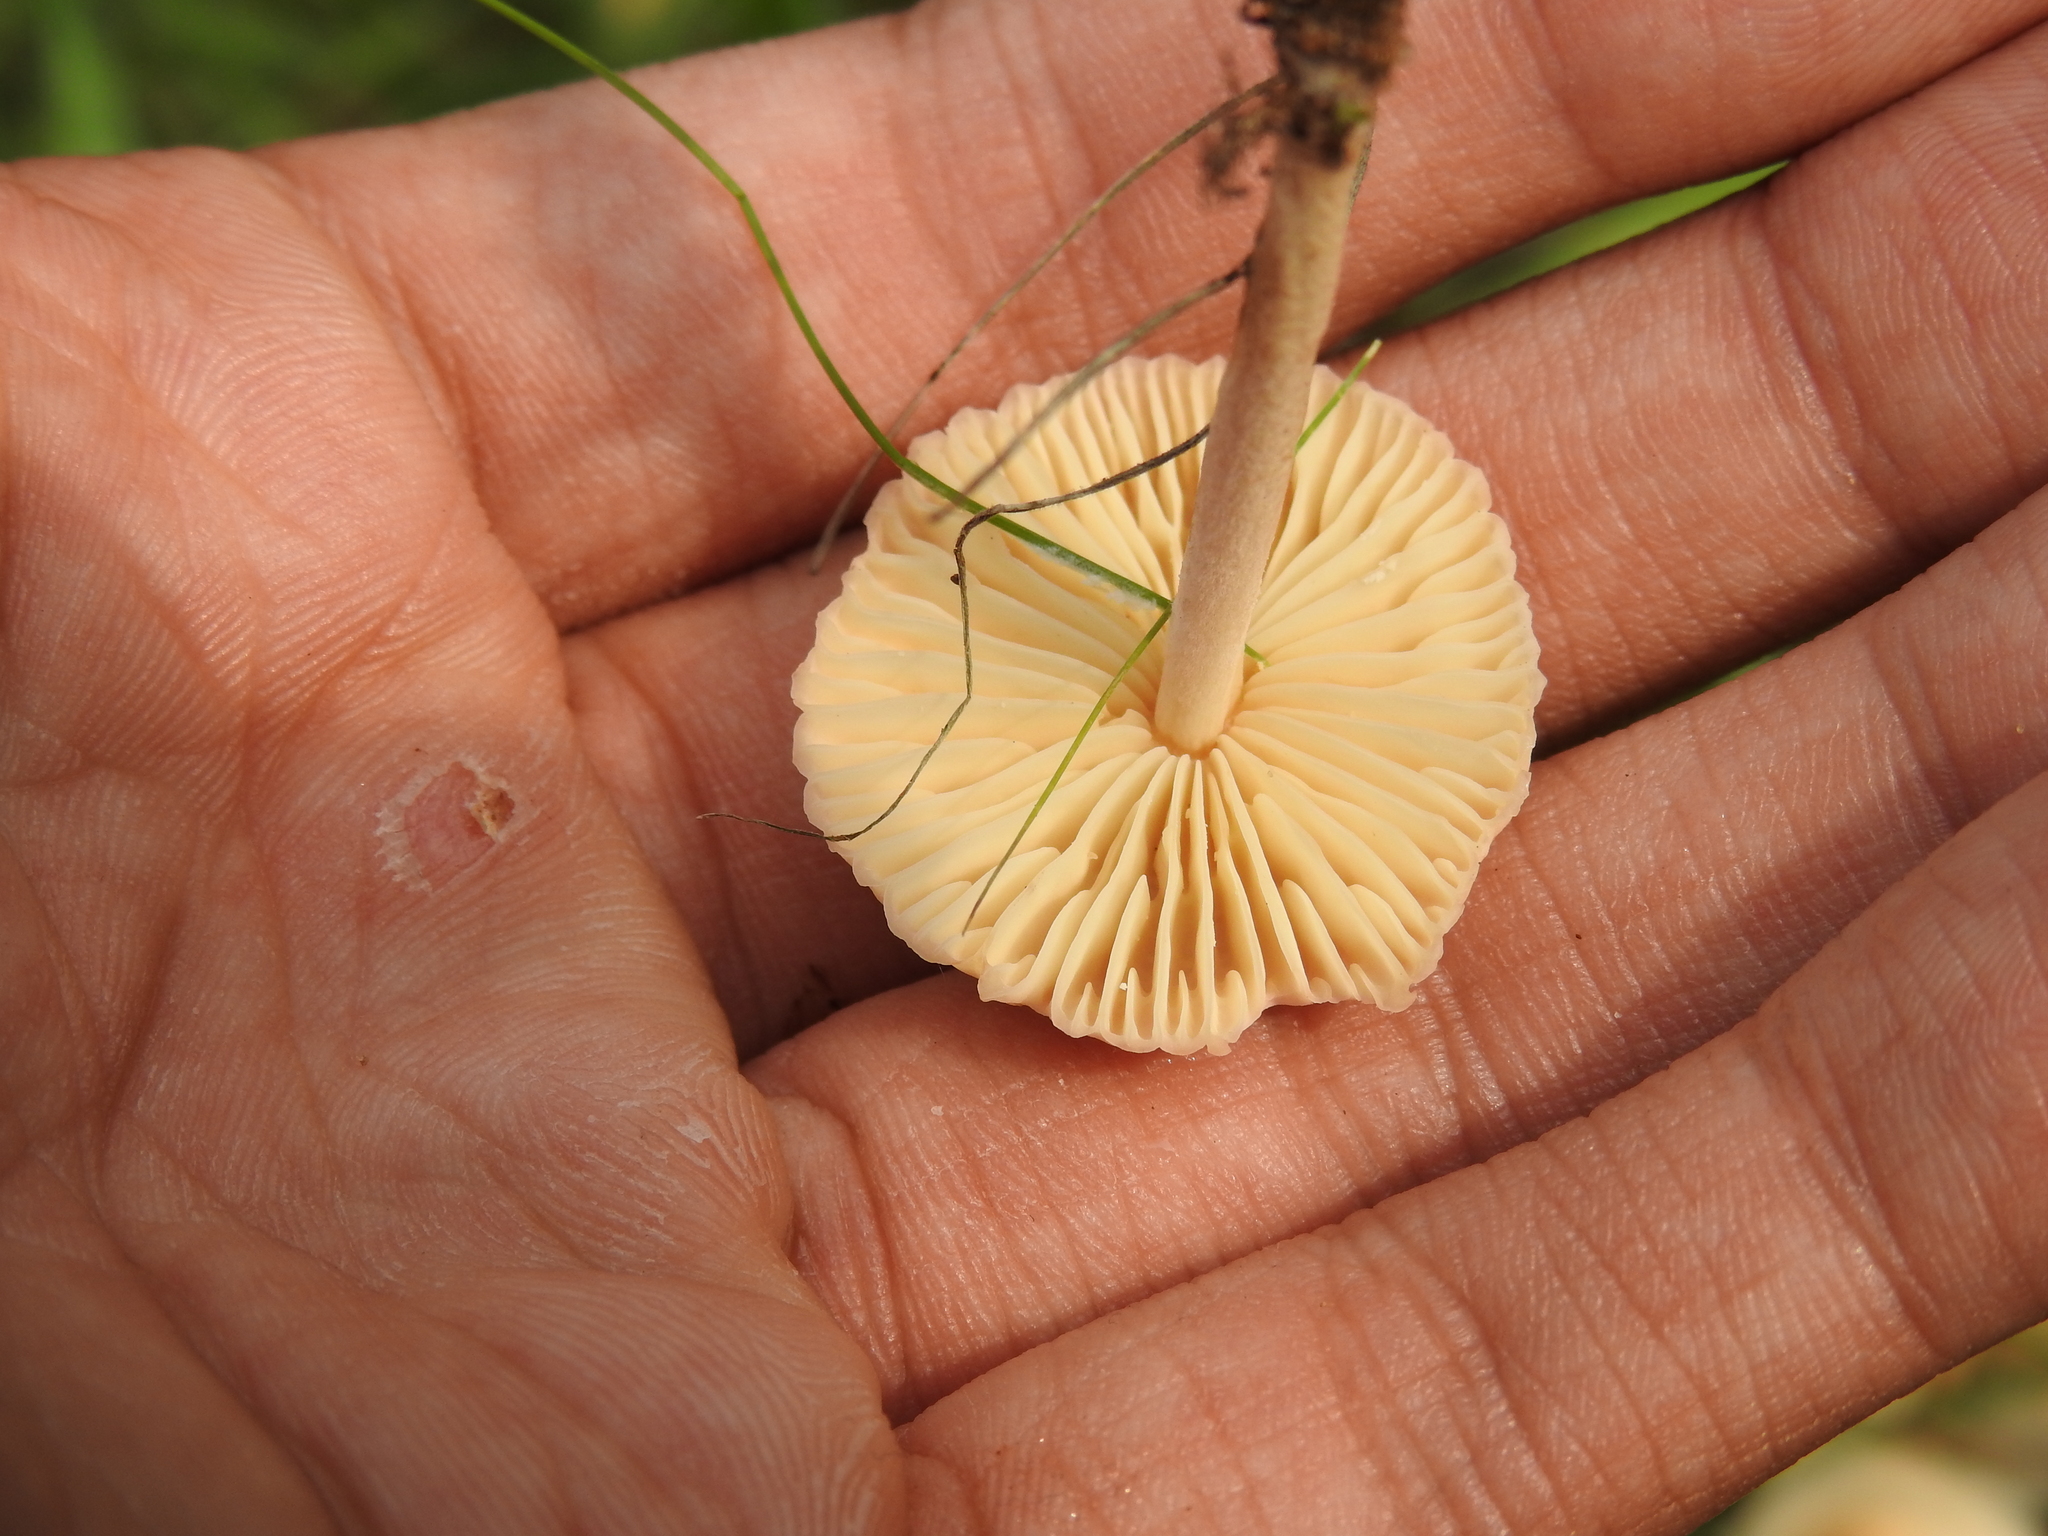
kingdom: Fungi
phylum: Basidiomycota
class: Agaricomycetes
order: Agaricales
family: Marasmiaceae
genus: Marasmius
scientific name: Marasmius oreades
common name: Fairy ring champignon
